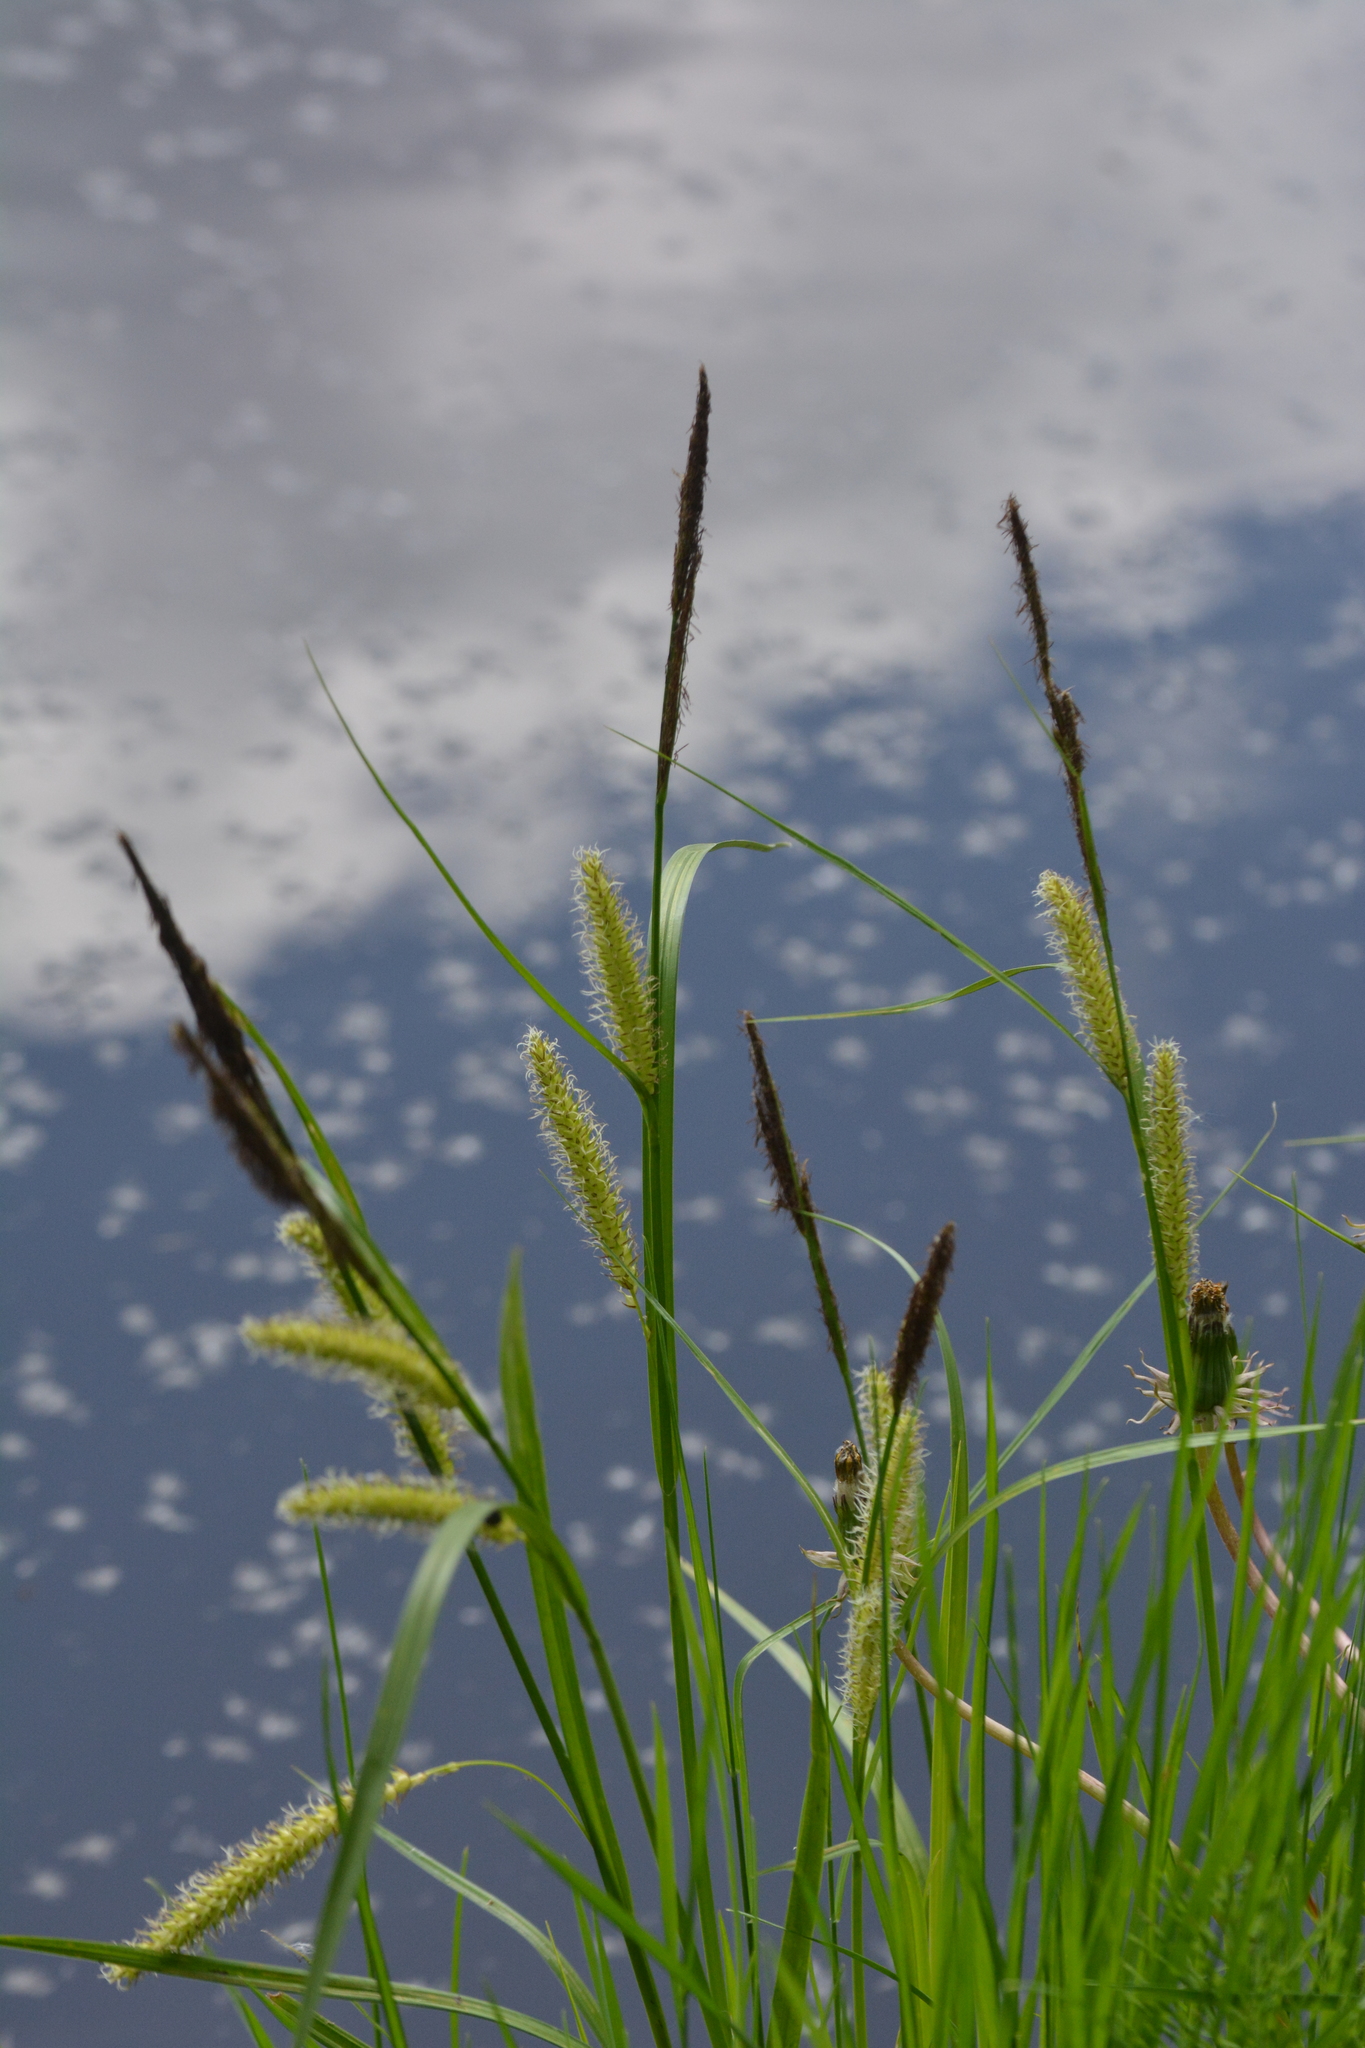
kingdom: Plantae
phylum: Tracheophyta
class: Liliopsida
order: Poales
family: Cyperaceae
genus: Carex
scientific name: Carex vesicaria
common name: Bladder-sedge
